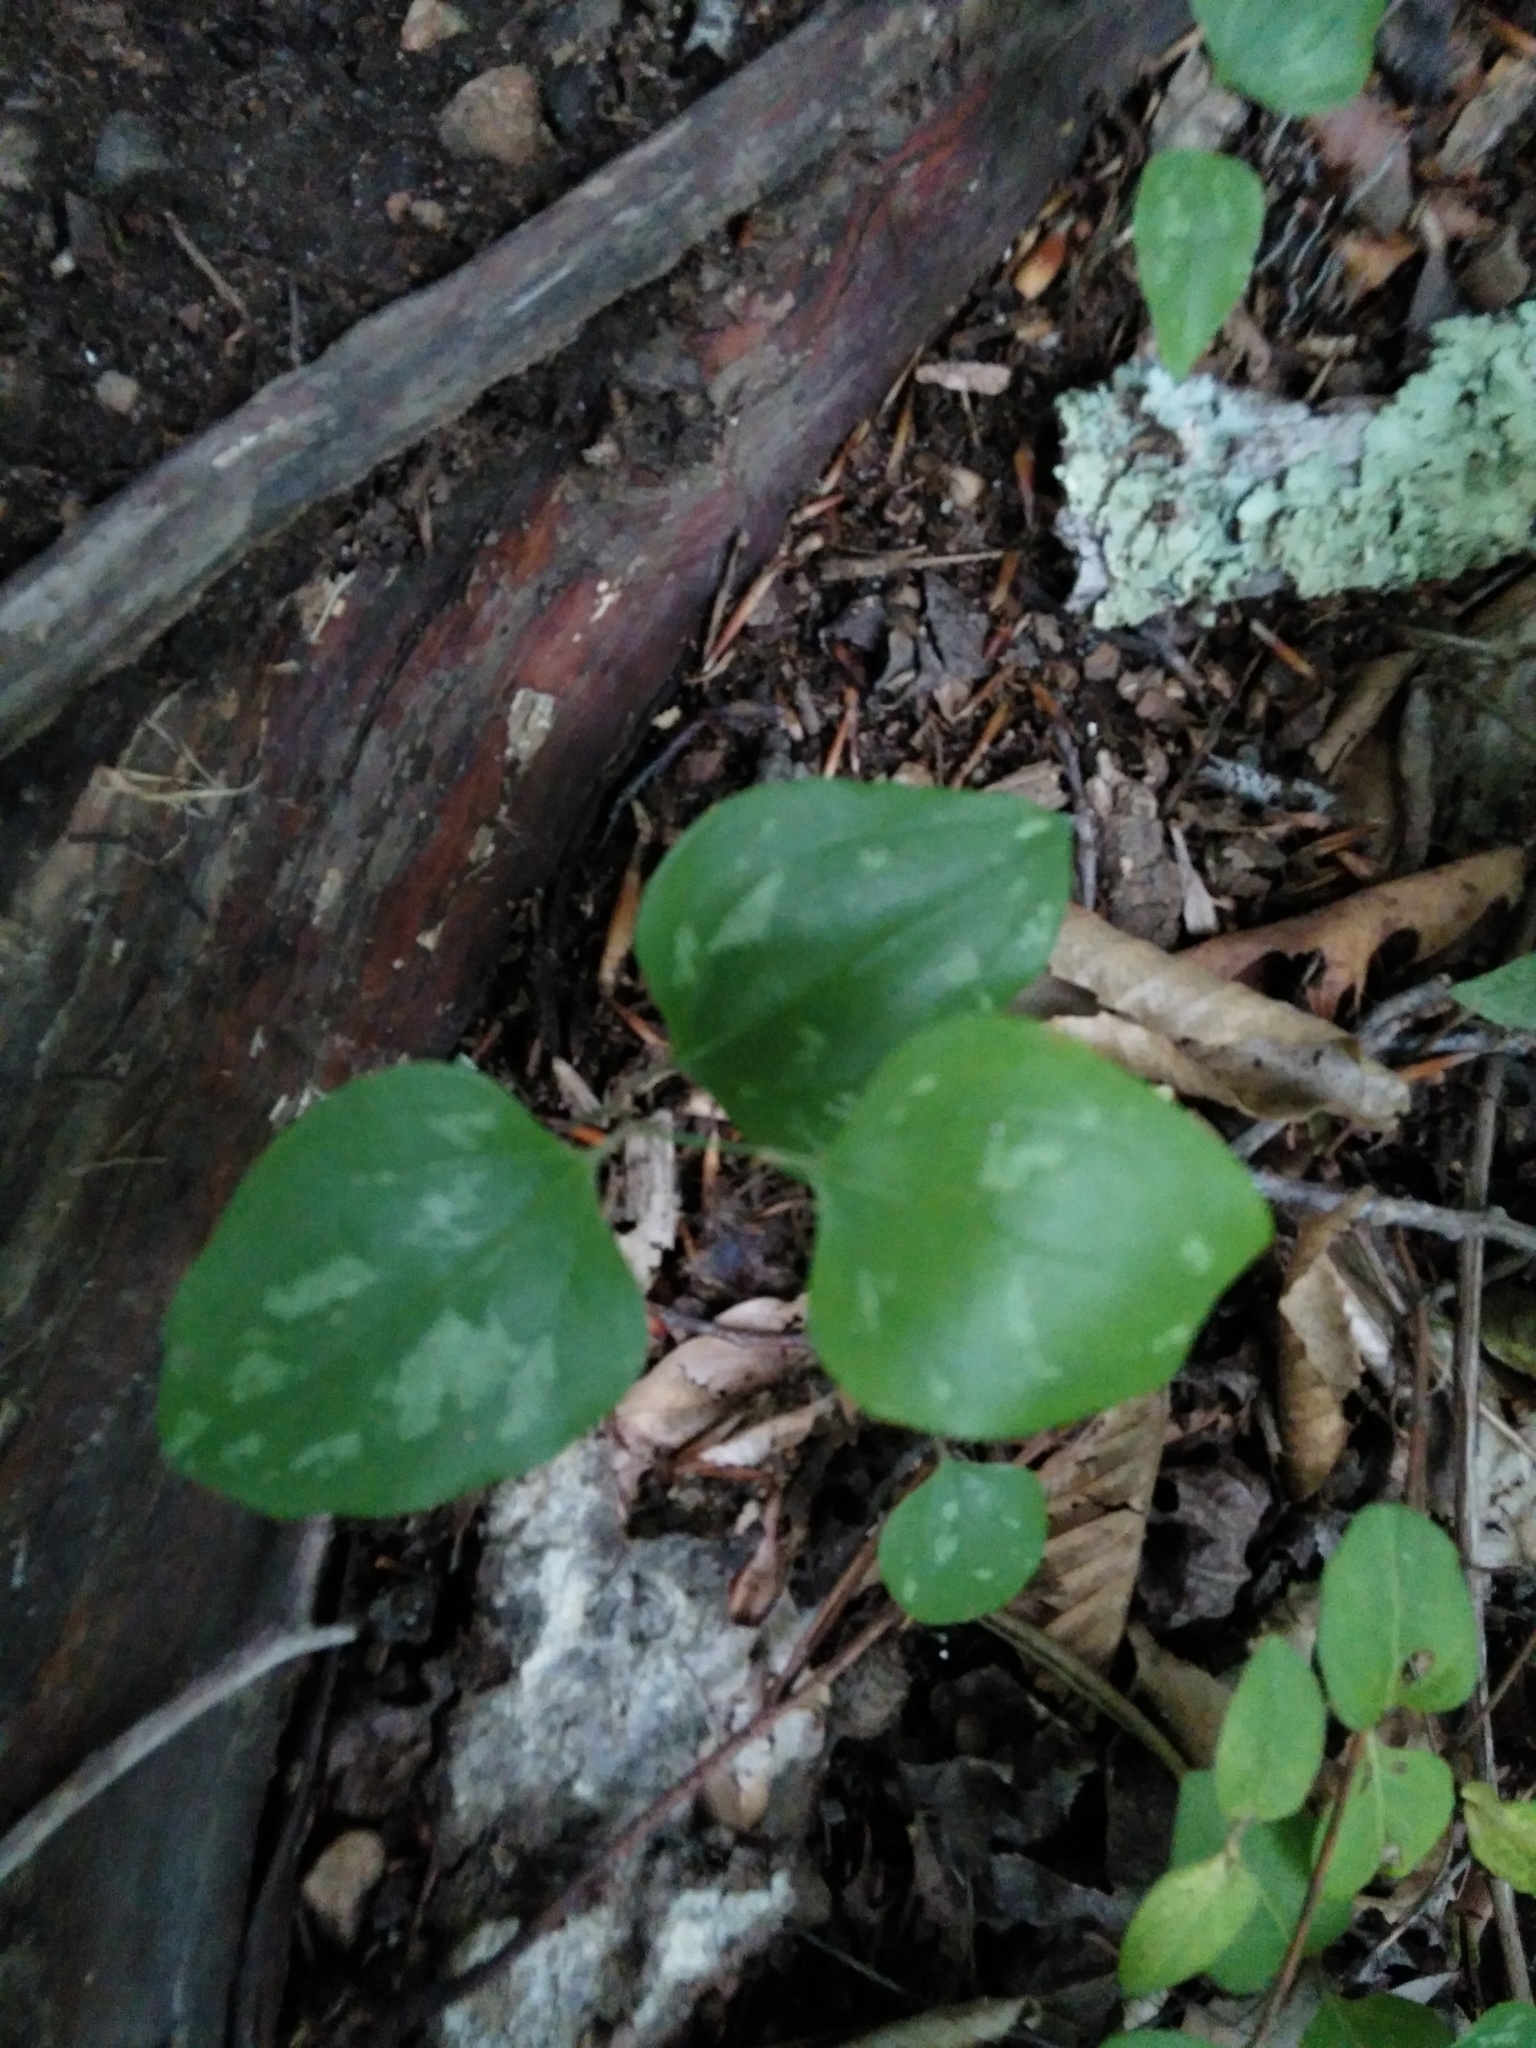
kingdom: Plantae
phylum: Tracheophyta
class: Liliopsida
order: Liliales
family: Smilacaceae
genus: Smilax
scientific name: Smilax glauca
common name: Cat greenbrier
